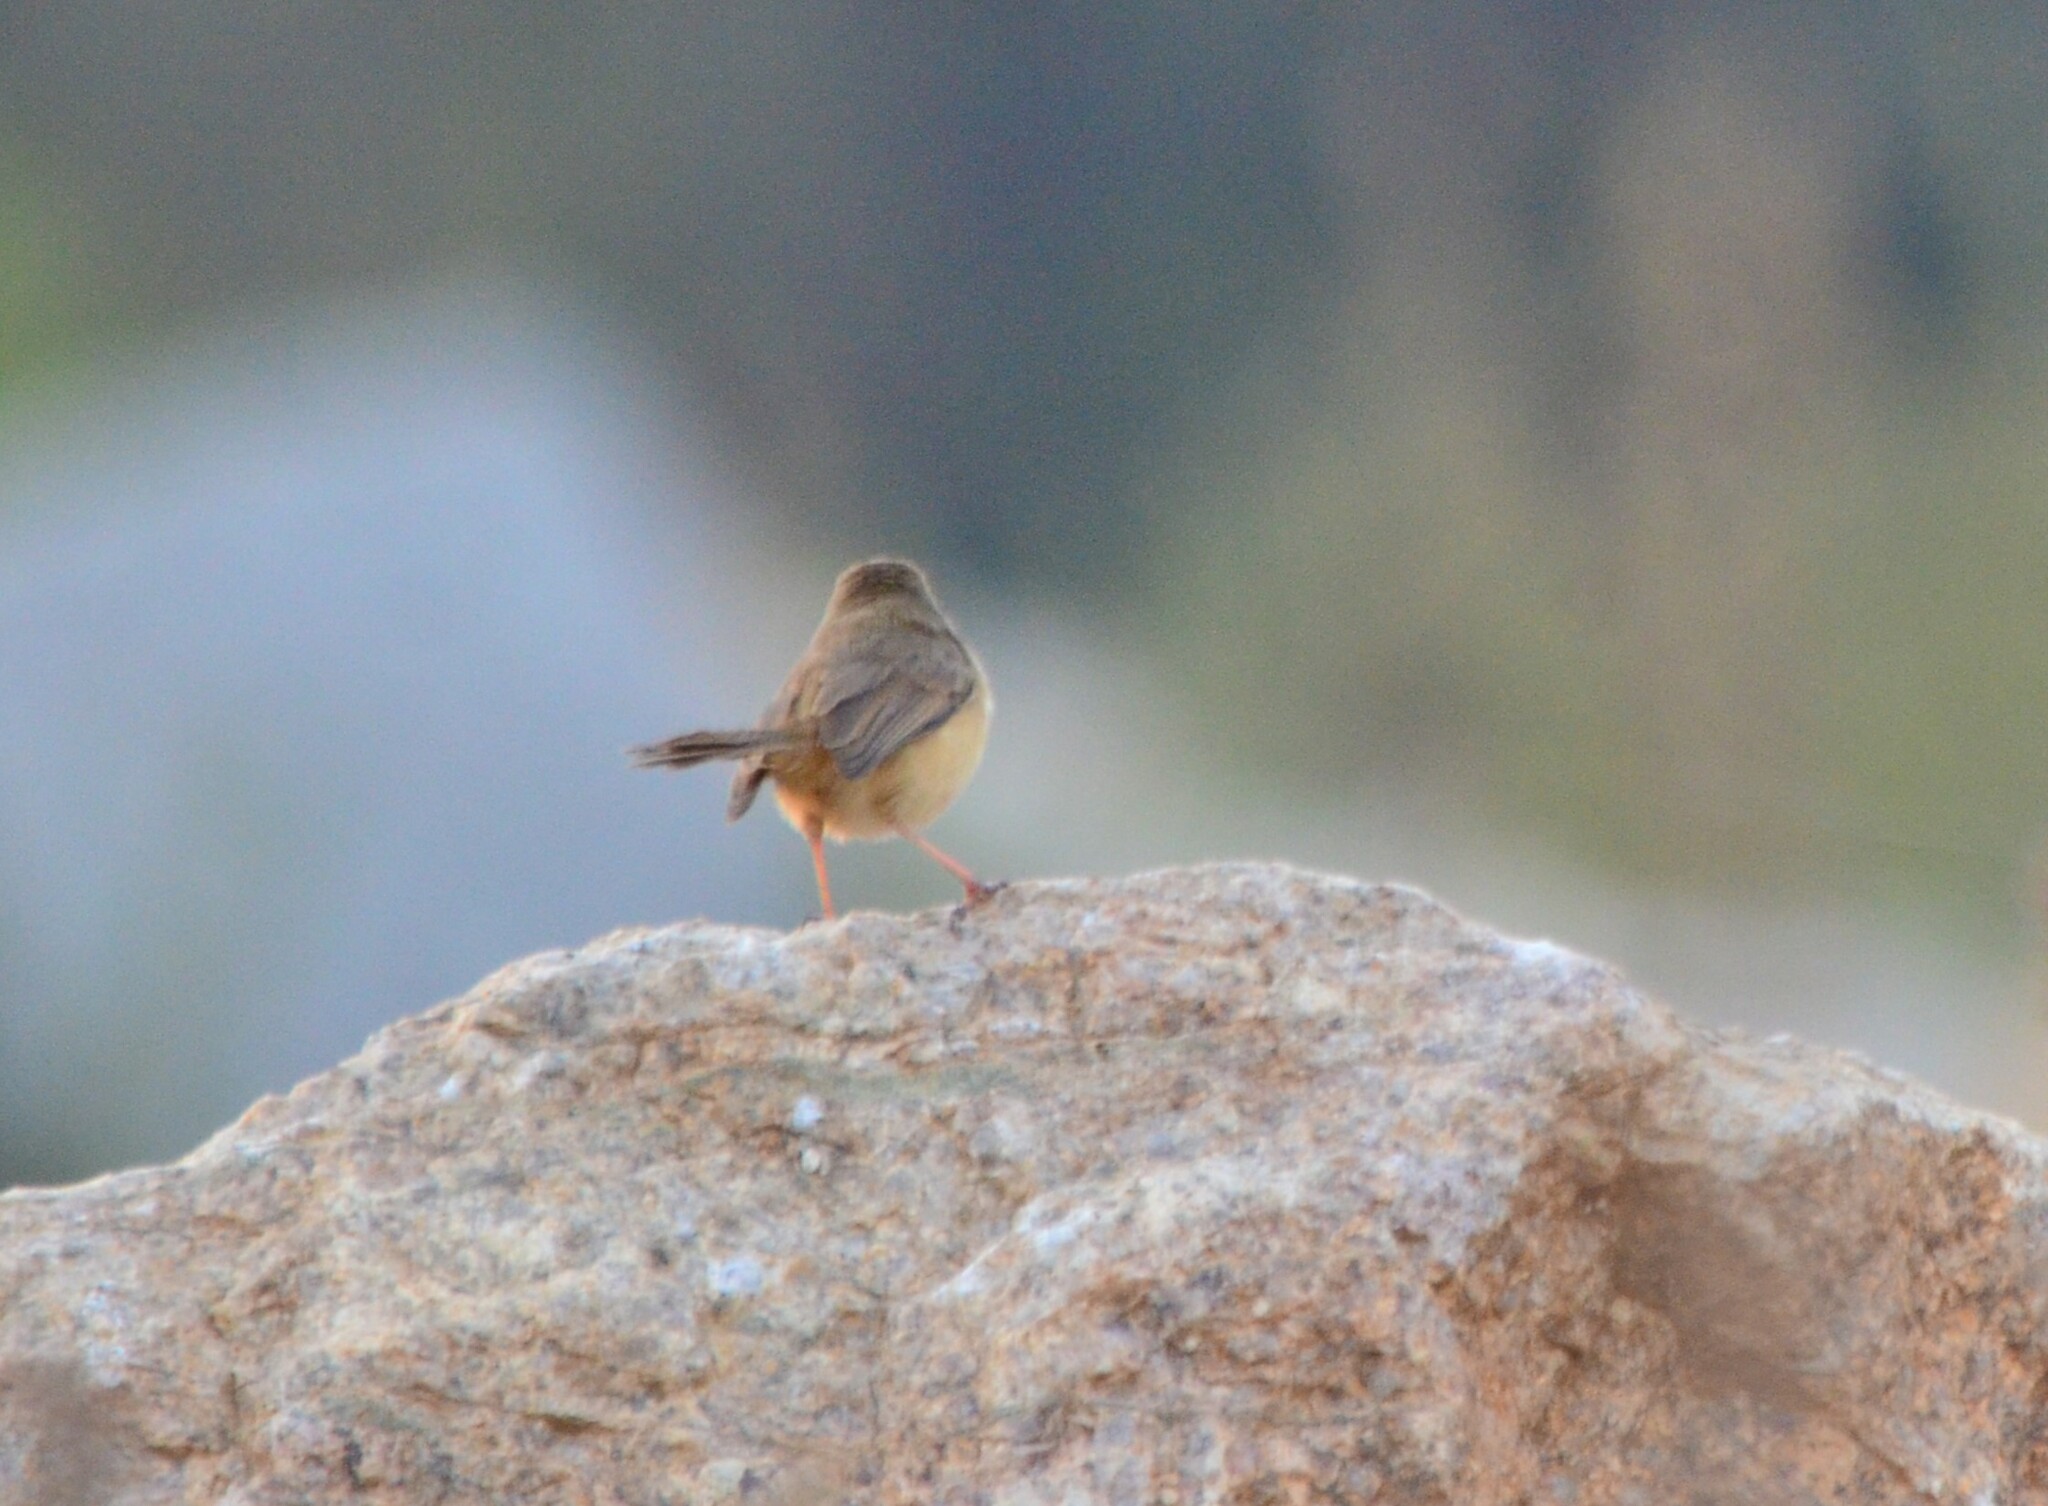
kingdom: Animalia
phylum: Chordata
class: Aves
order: Passeriformes
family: Cisticolidae
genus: Prinia
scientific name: Prinia inornata
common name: Plain prinia
